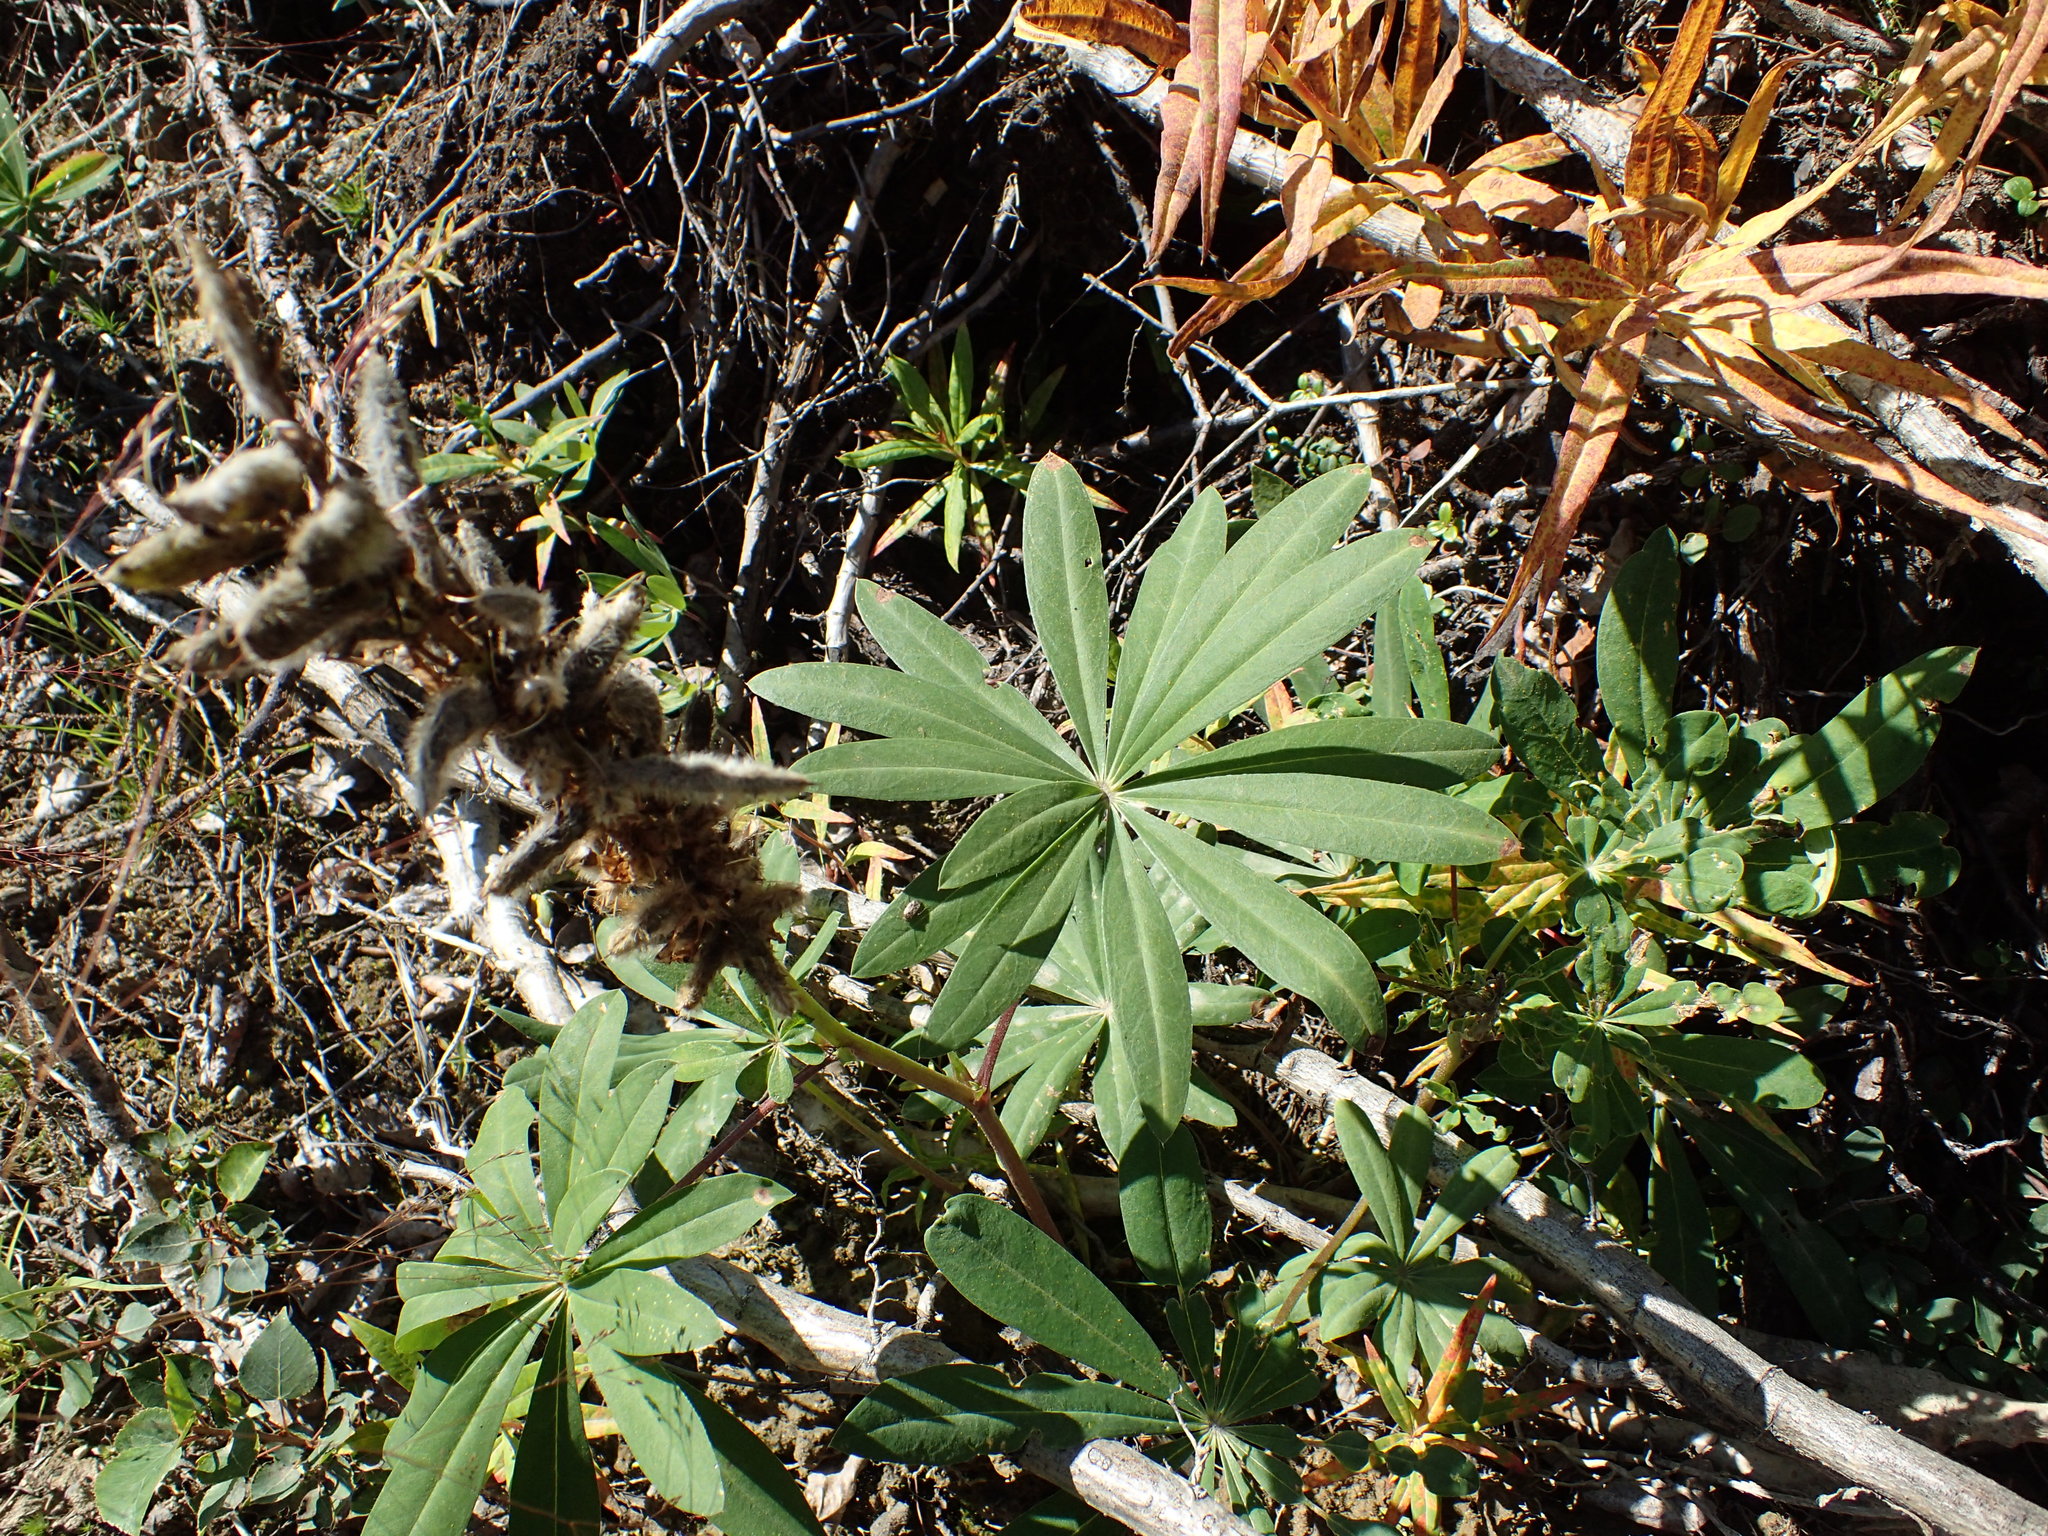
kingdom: Plantae
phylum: Tracheophyta
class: Magnoliopsida
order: Fabales
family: Fabaceae
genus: Lupinus
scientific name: Lupinus polyphyllus
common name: Garden lupin
